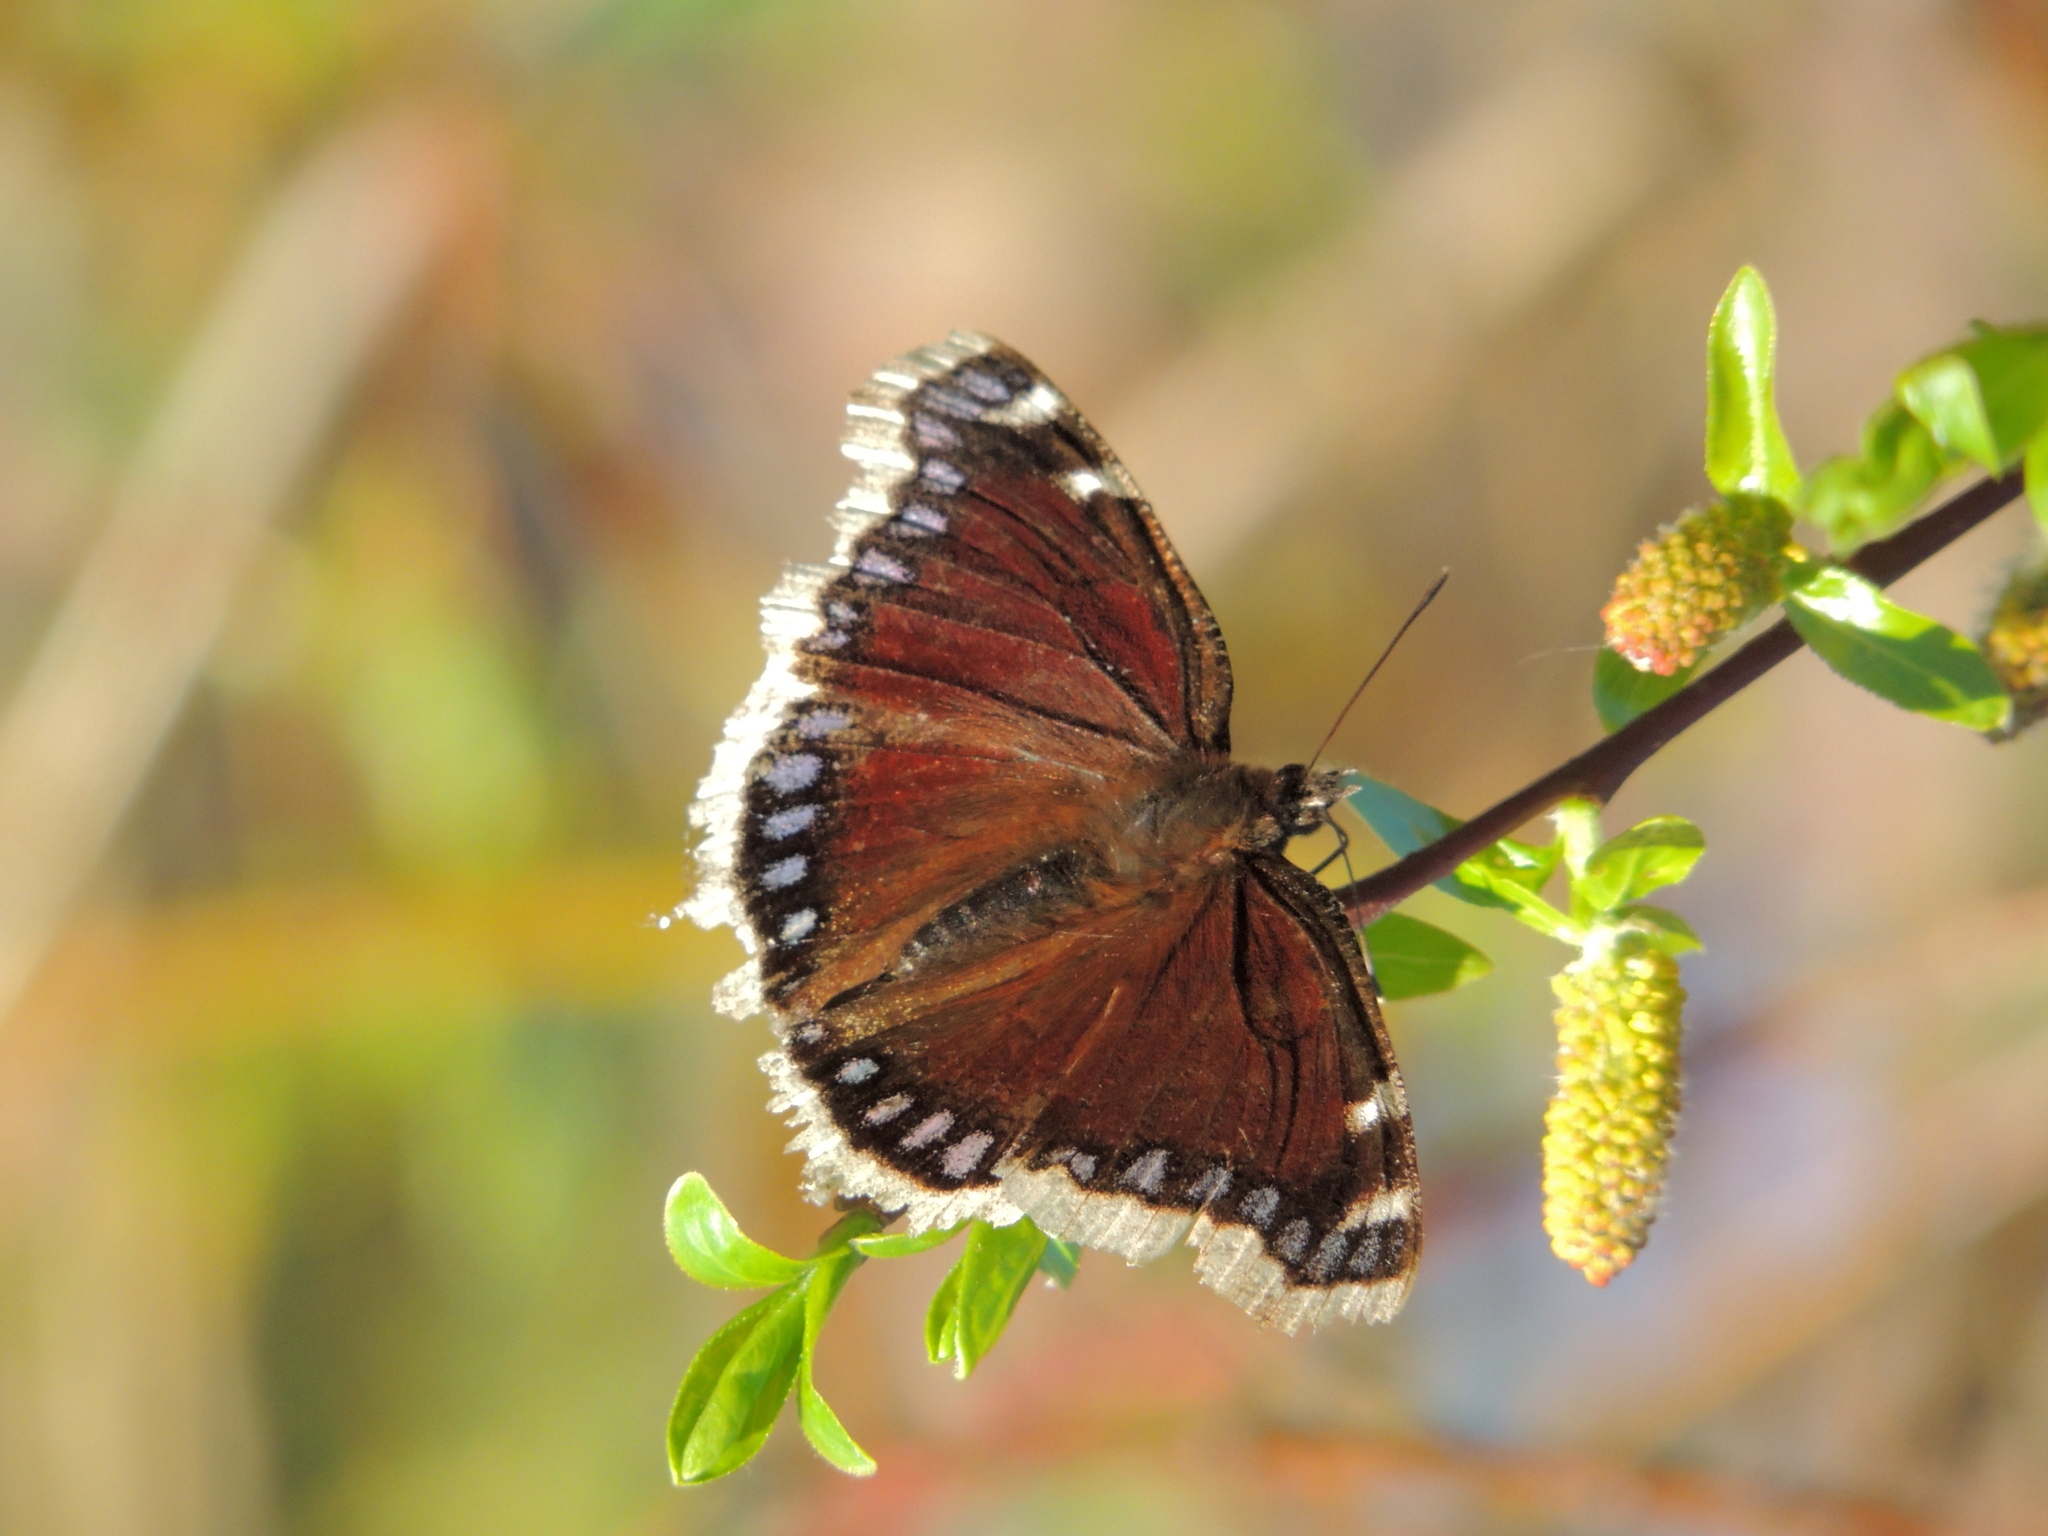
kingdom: Animalia
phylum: Arthropoda
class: Insecta
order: Lepidoptera
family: Nymphalidae
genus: Nymphalis
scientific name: Nymphalis antiopa
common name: Camberwell beauty
